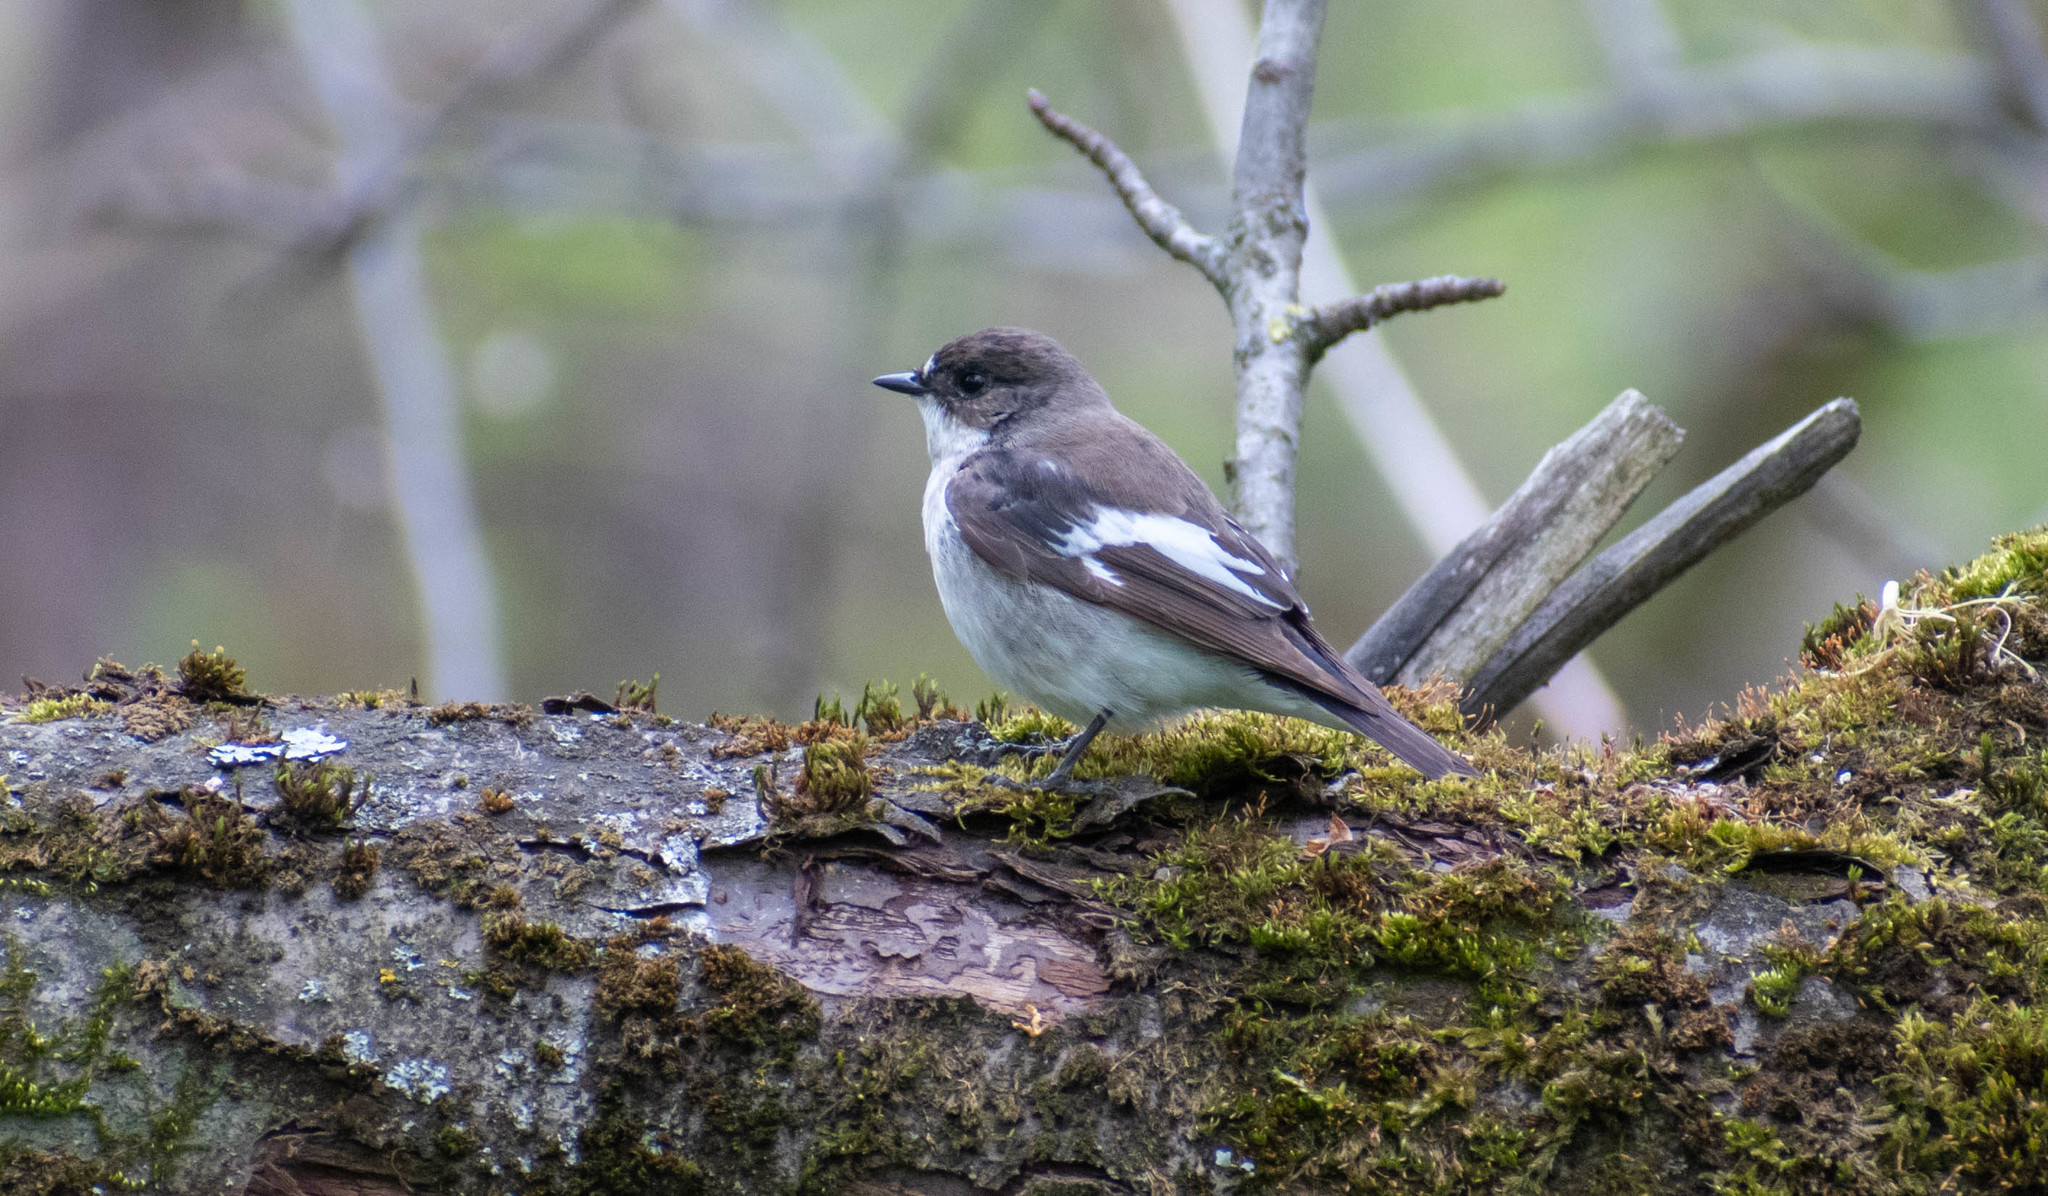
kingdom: Animalia
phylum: Chordata
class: Aves
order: Passeriformes
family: Muscicapidae
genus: Ficedula
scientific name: Ficedula hypoleuca
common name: European pied flycatcher
